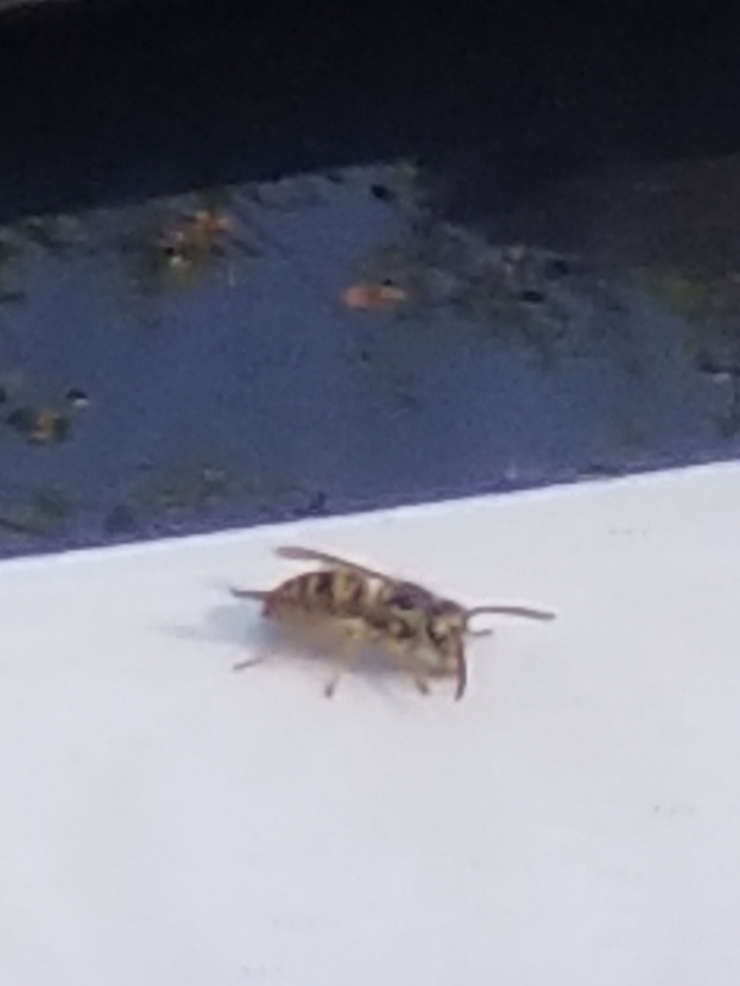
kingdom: Animalia
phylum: Arthropoda
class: Insecta
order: Hymenoptera
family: Vespidae
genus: Vespula
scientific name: Vespula maculifrons
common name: Eastern yellowjacket
